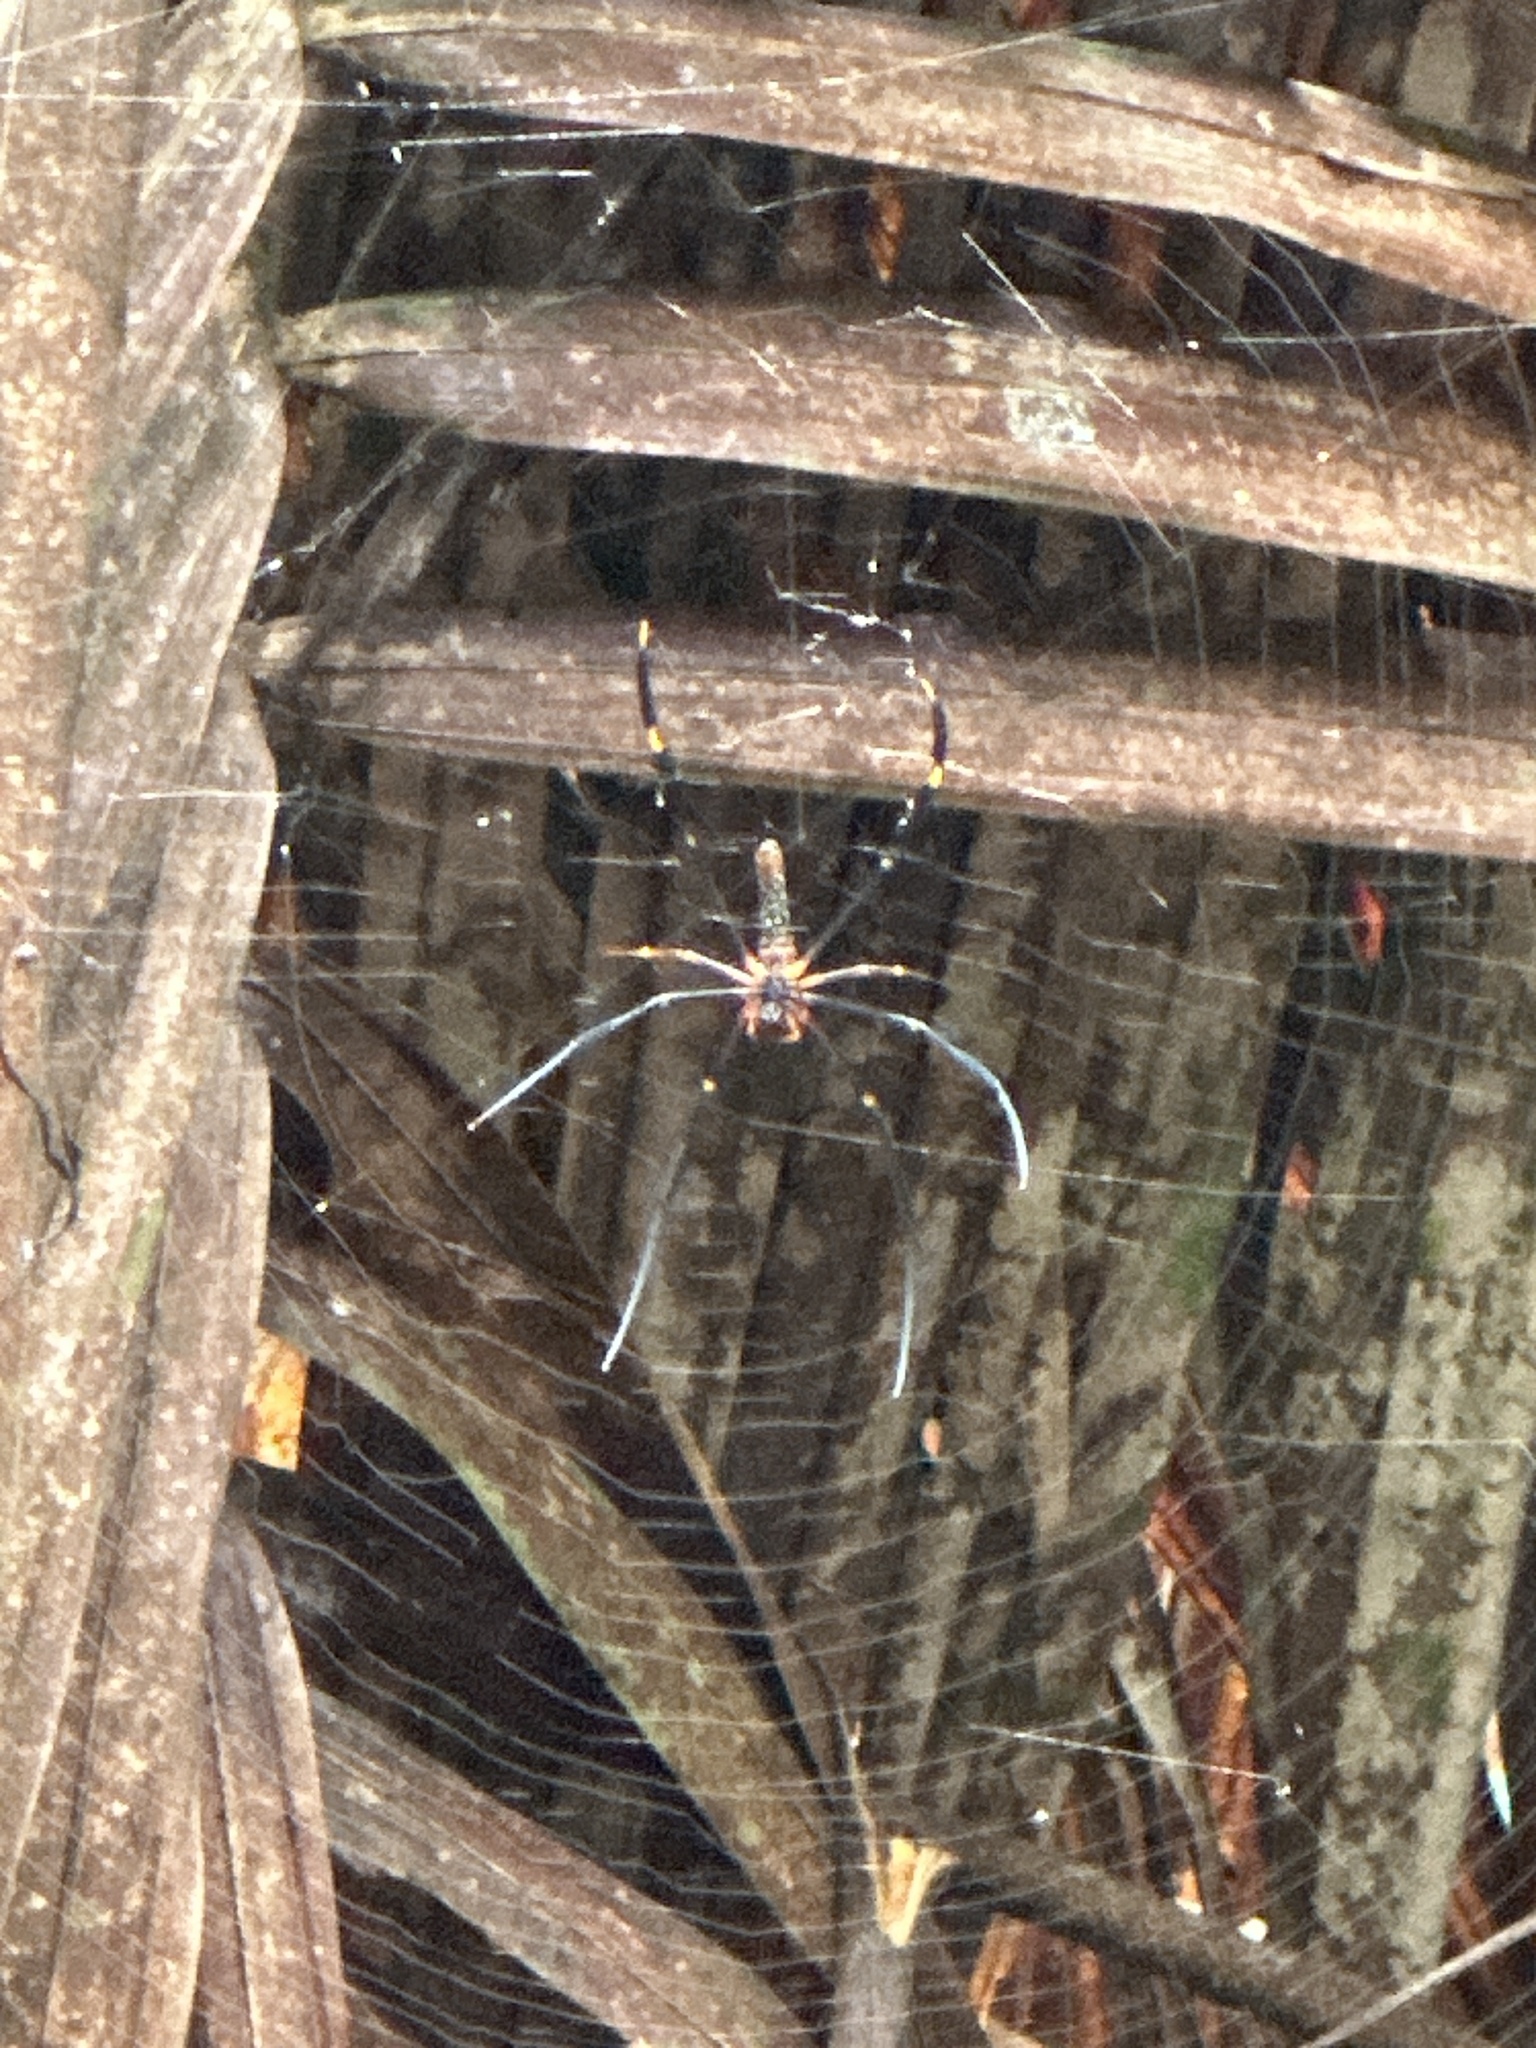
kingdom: Animalia
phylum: Arthropoda
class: Arachnida
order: Araneae
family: Araneidae
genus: Nephila
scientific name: Nephila pilipes
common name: Giant golden orb weaver
